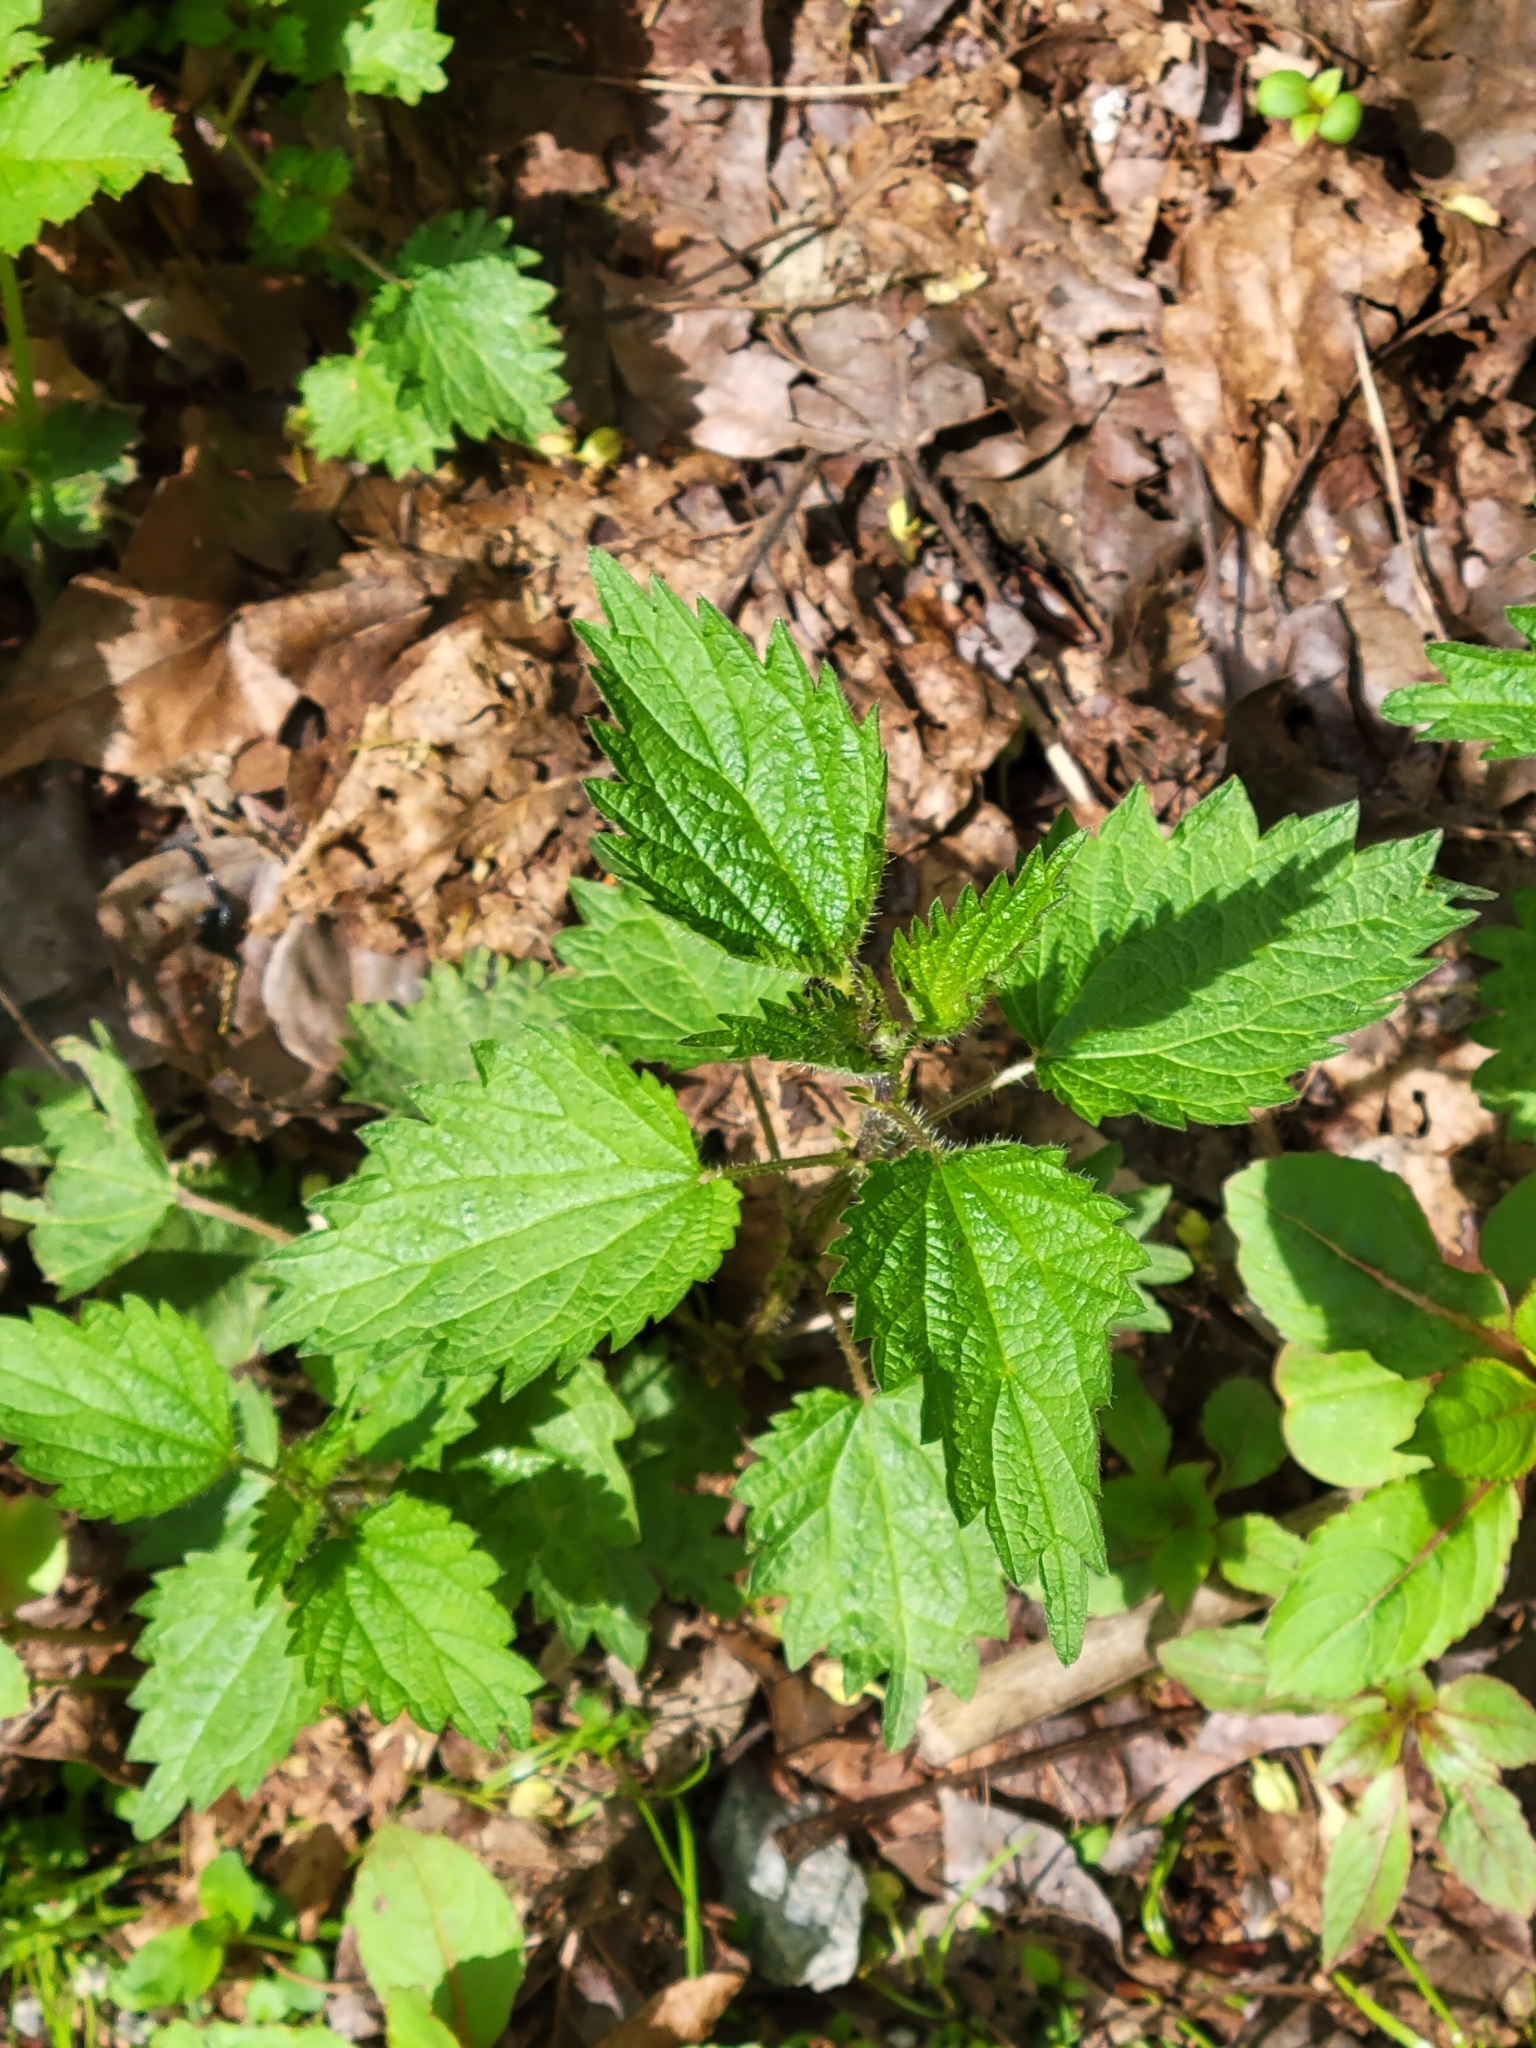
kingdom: Plantae
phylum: Tracheophyta
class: Magnoliopsida
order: Rosales
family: Urticaceae
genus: Urtica
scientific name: Urtica dioica
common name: Common nettle
